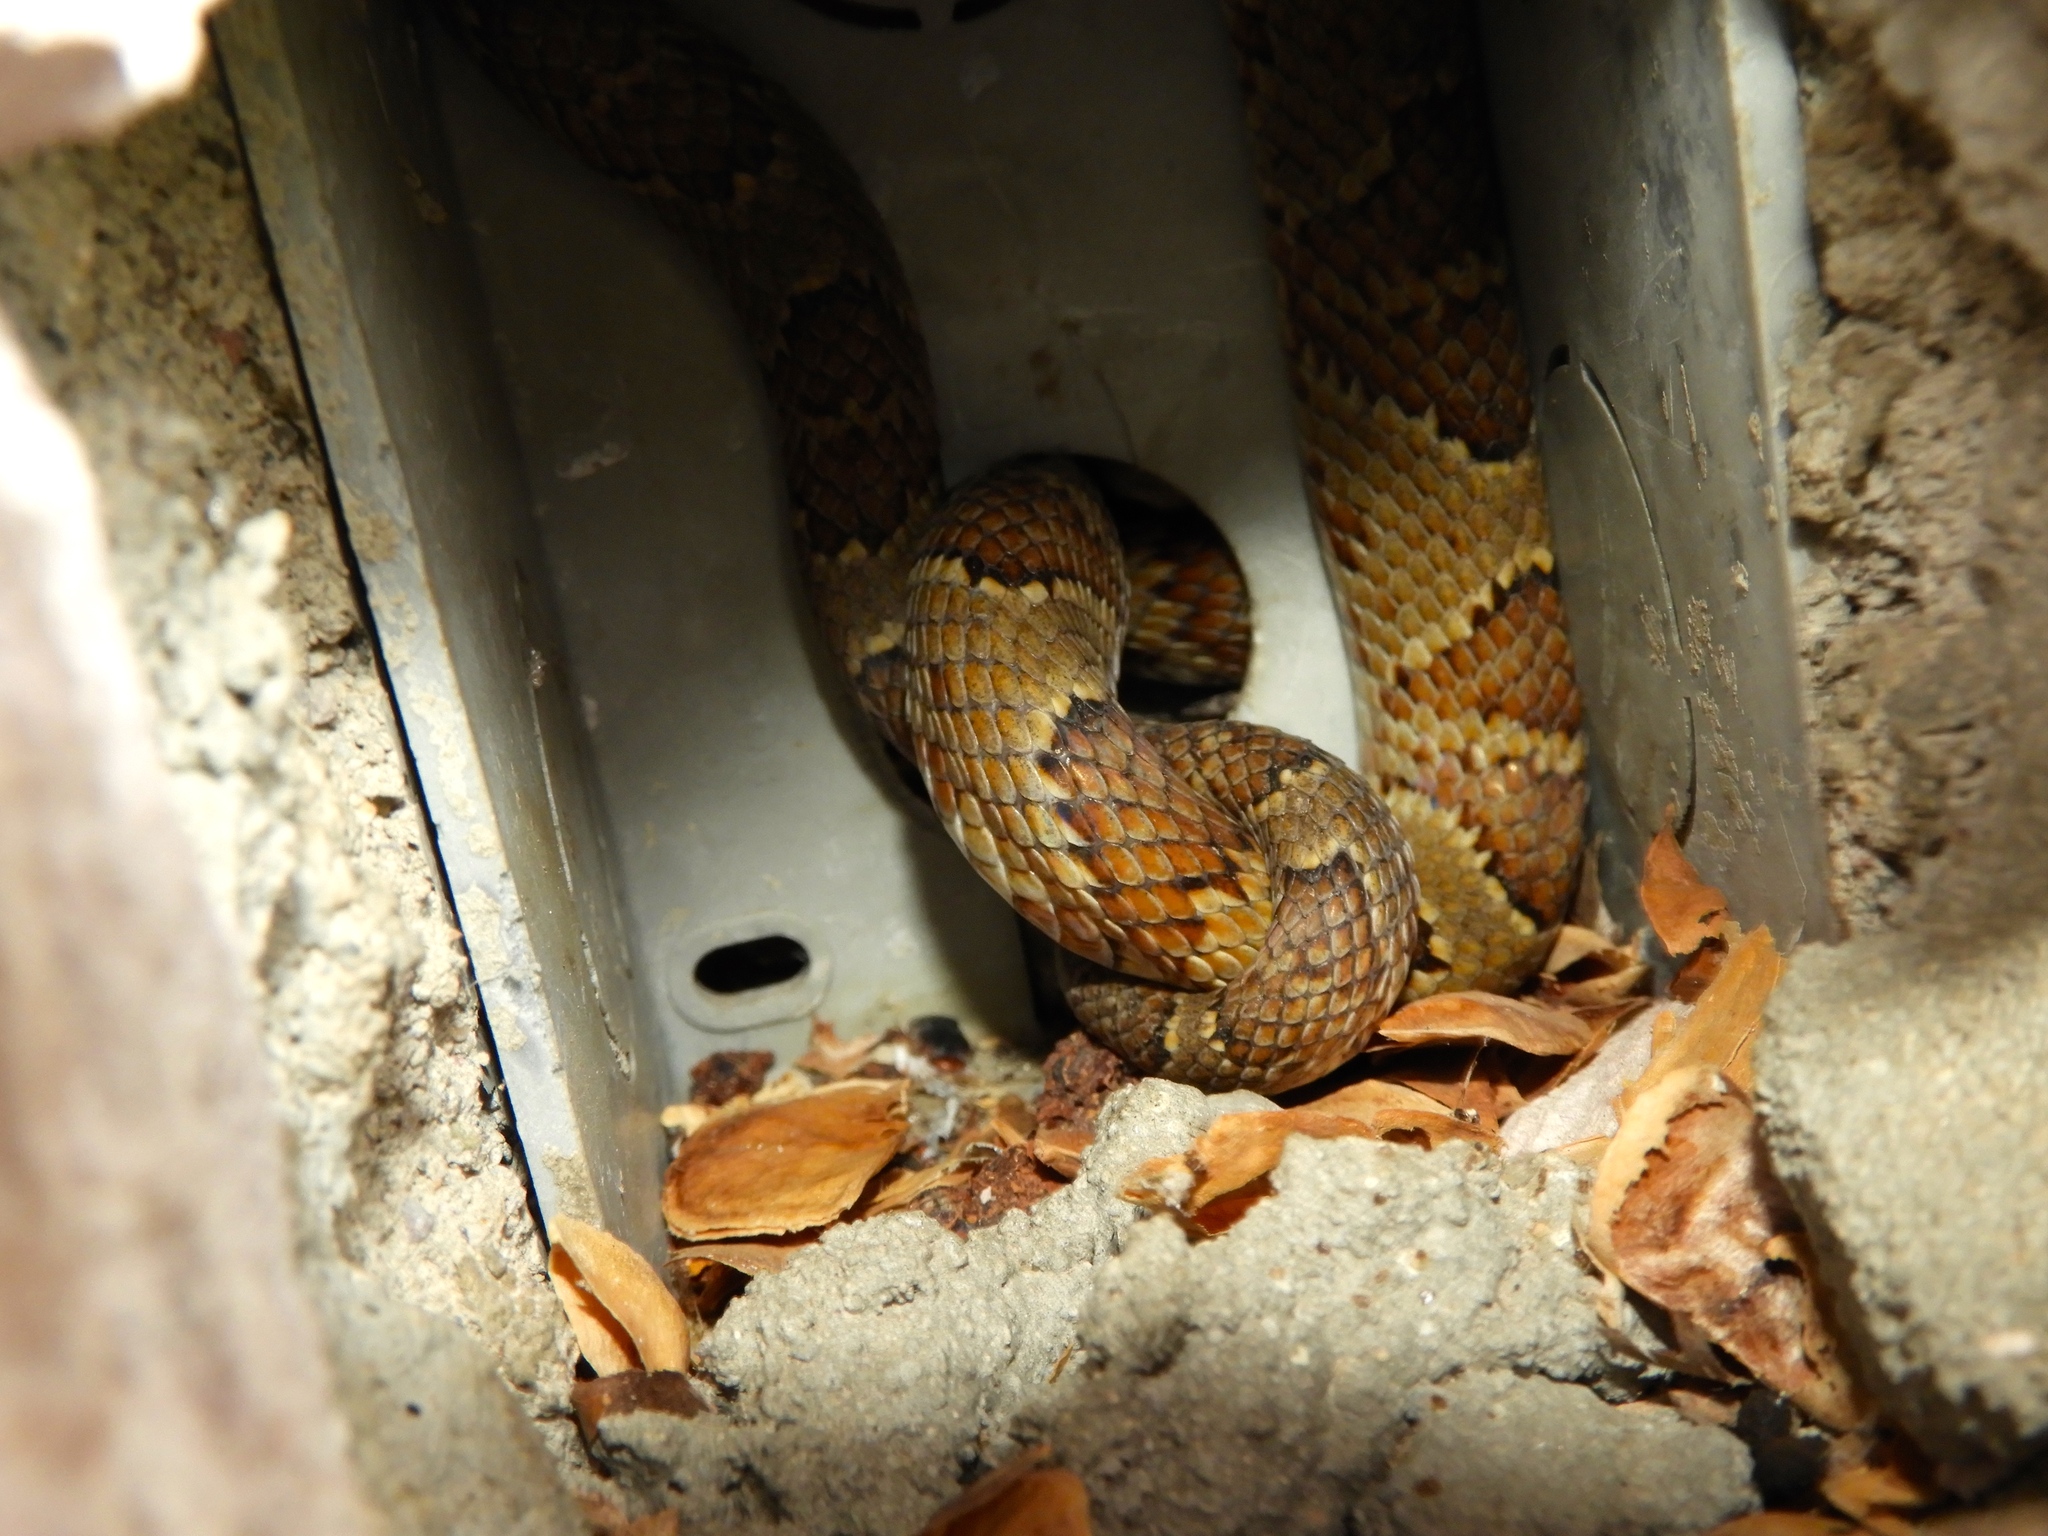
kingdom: Animalia
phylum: Chordata
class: Squamata
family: Colubridae
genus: Trimorphodon
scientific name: Trimorphodon paucimaculatus
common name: Sinaloan lyresnake
